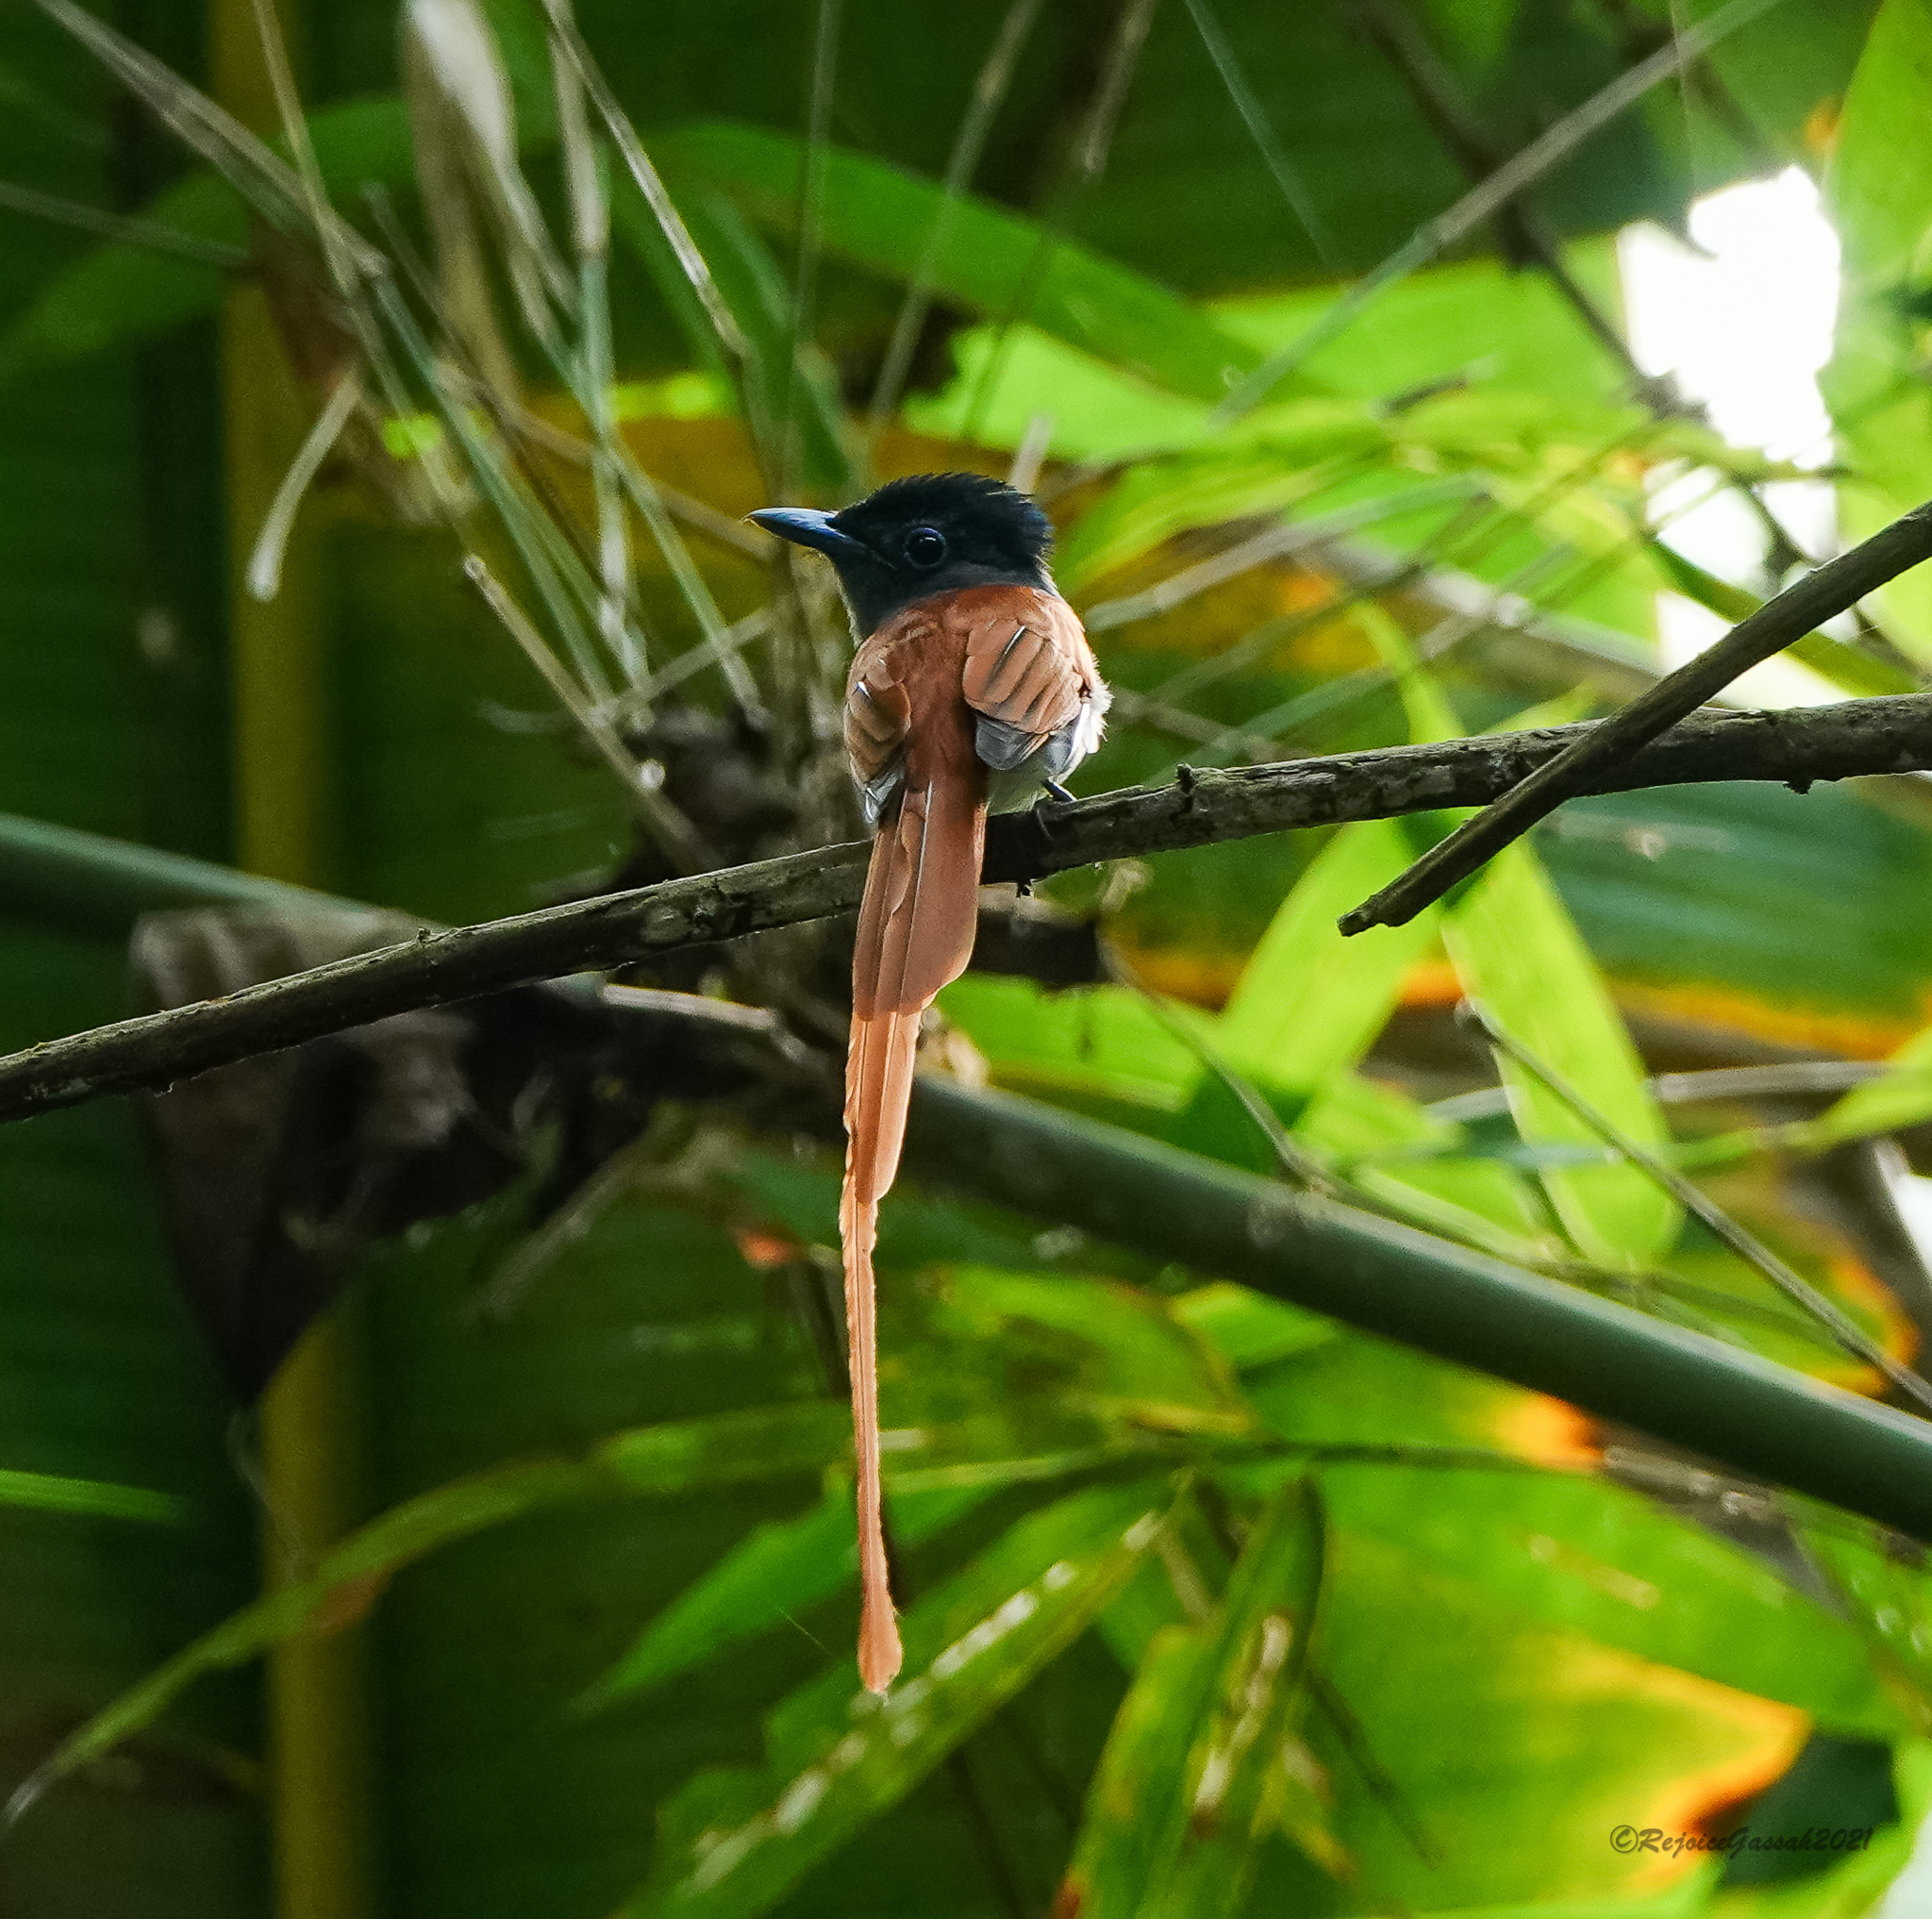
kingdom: Animalia
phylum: Chordata
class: Aves
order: Passeriformes
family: Monarchidae
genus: Terpsiphone
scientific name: Terpsiphone paradisi
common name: Indian paradise flycatcher
